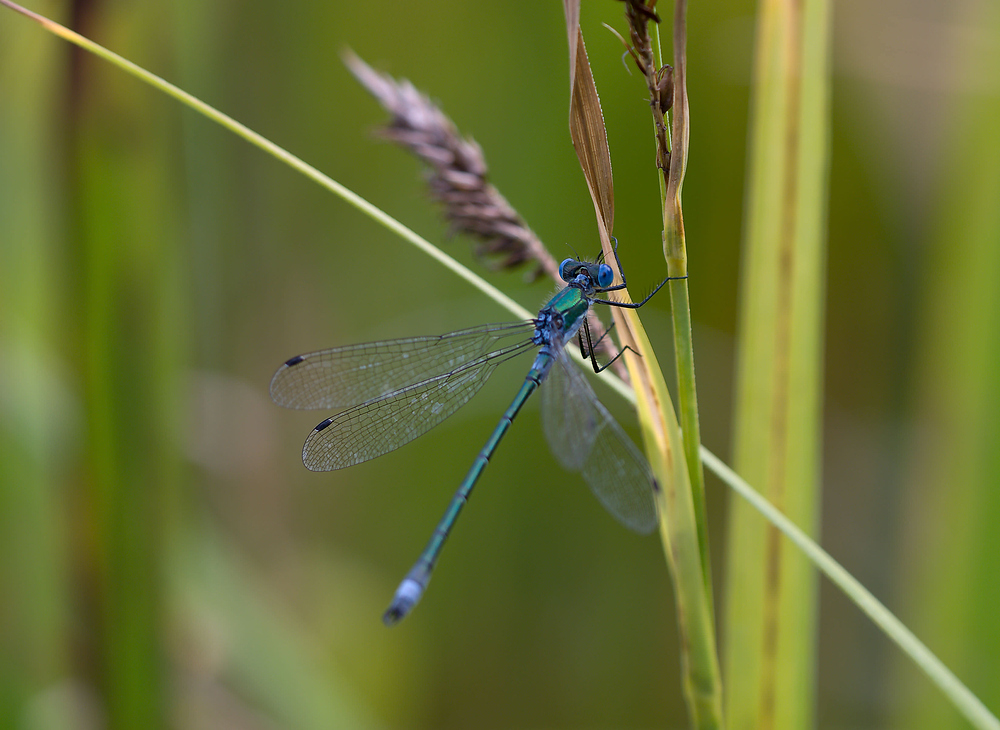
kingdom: Animalia
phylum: Arthropoda
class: Insecta
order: Odonata
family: Lestidae
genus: Lestes
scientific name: Lestes dryas
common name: Scarce emerald damselfly
